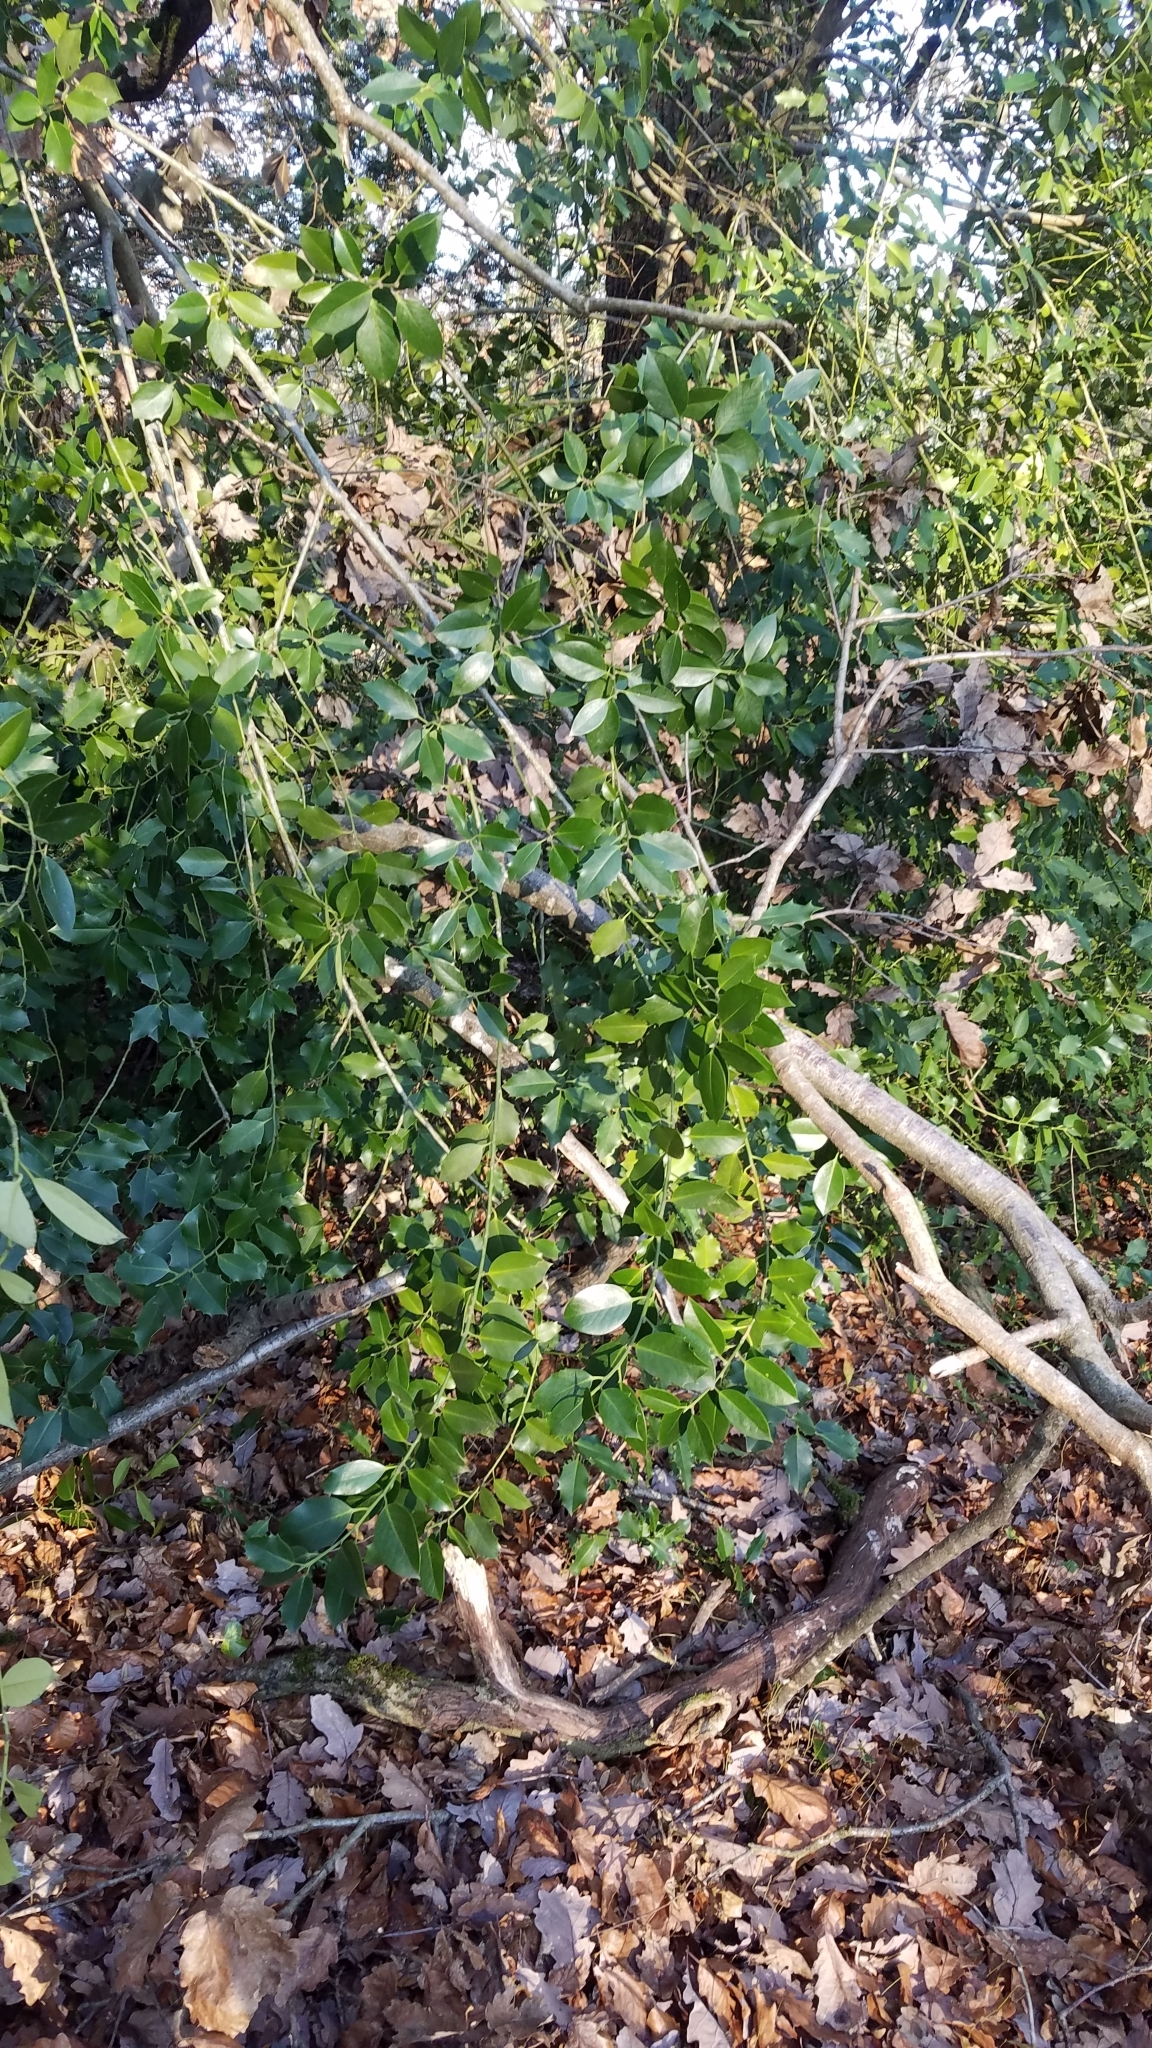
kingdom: Plantae
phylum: Tracheophyta
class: Magnoliopsida
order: Aquifoliales
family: Aquifoliaceae
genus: Ilex
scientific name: Ilex aquifolium
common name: English holly
